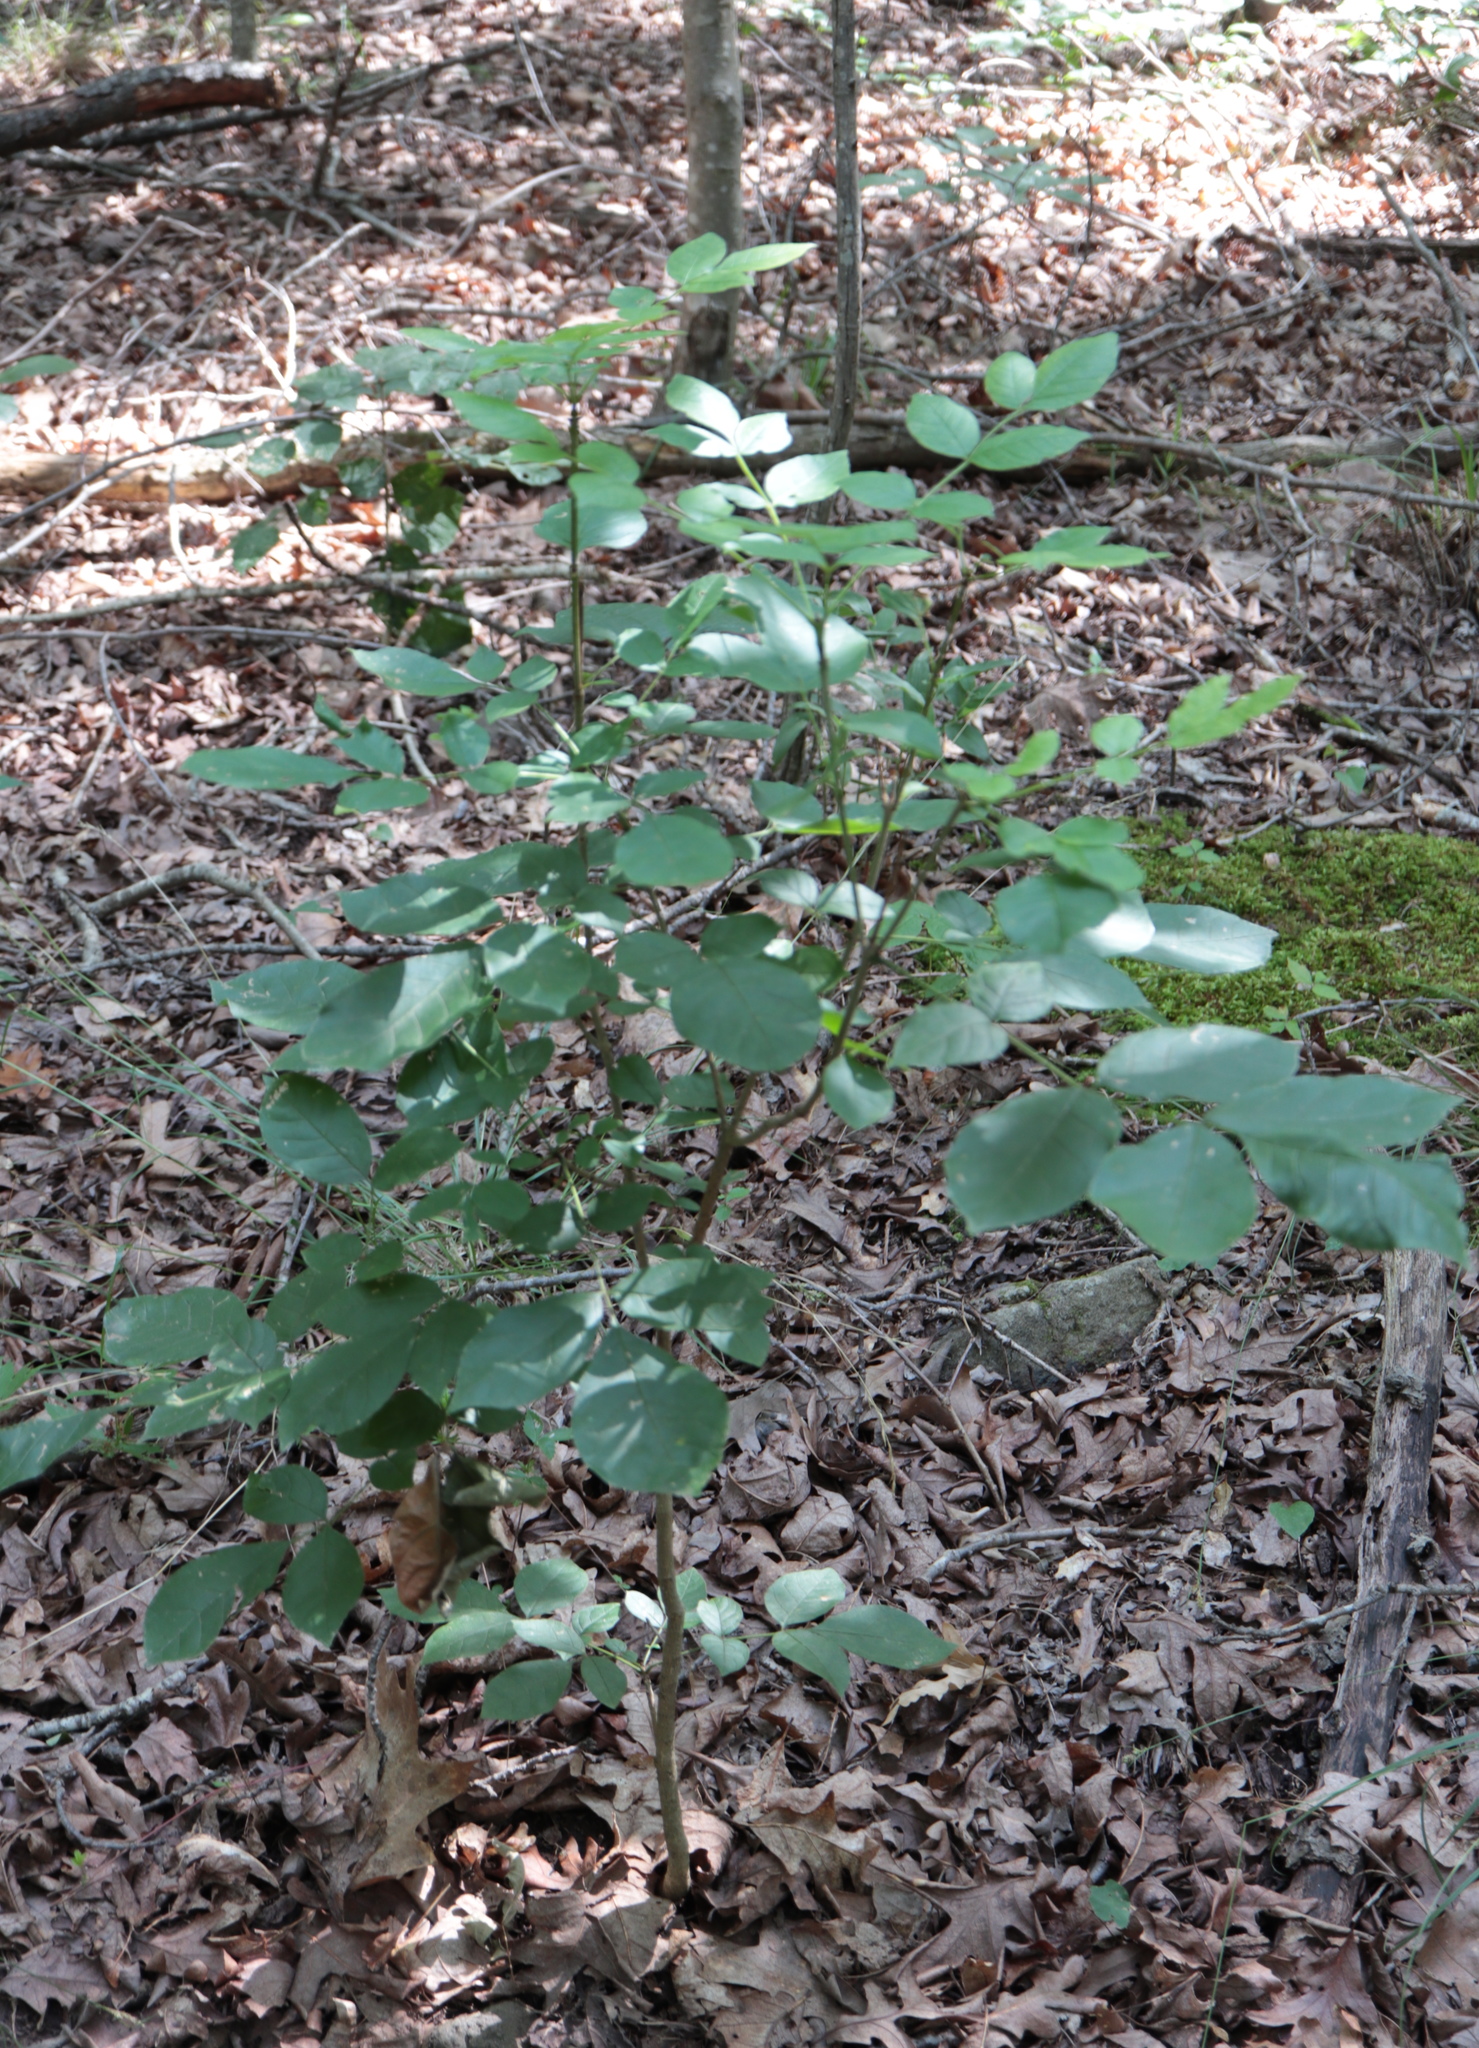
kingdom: Plantae
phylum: Tracheophyta
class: Magnoliopsida
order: Lamiales
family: Oleaceae
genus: Fraxinus
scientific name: Fraxinus pennsylvanica
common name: Green ash
